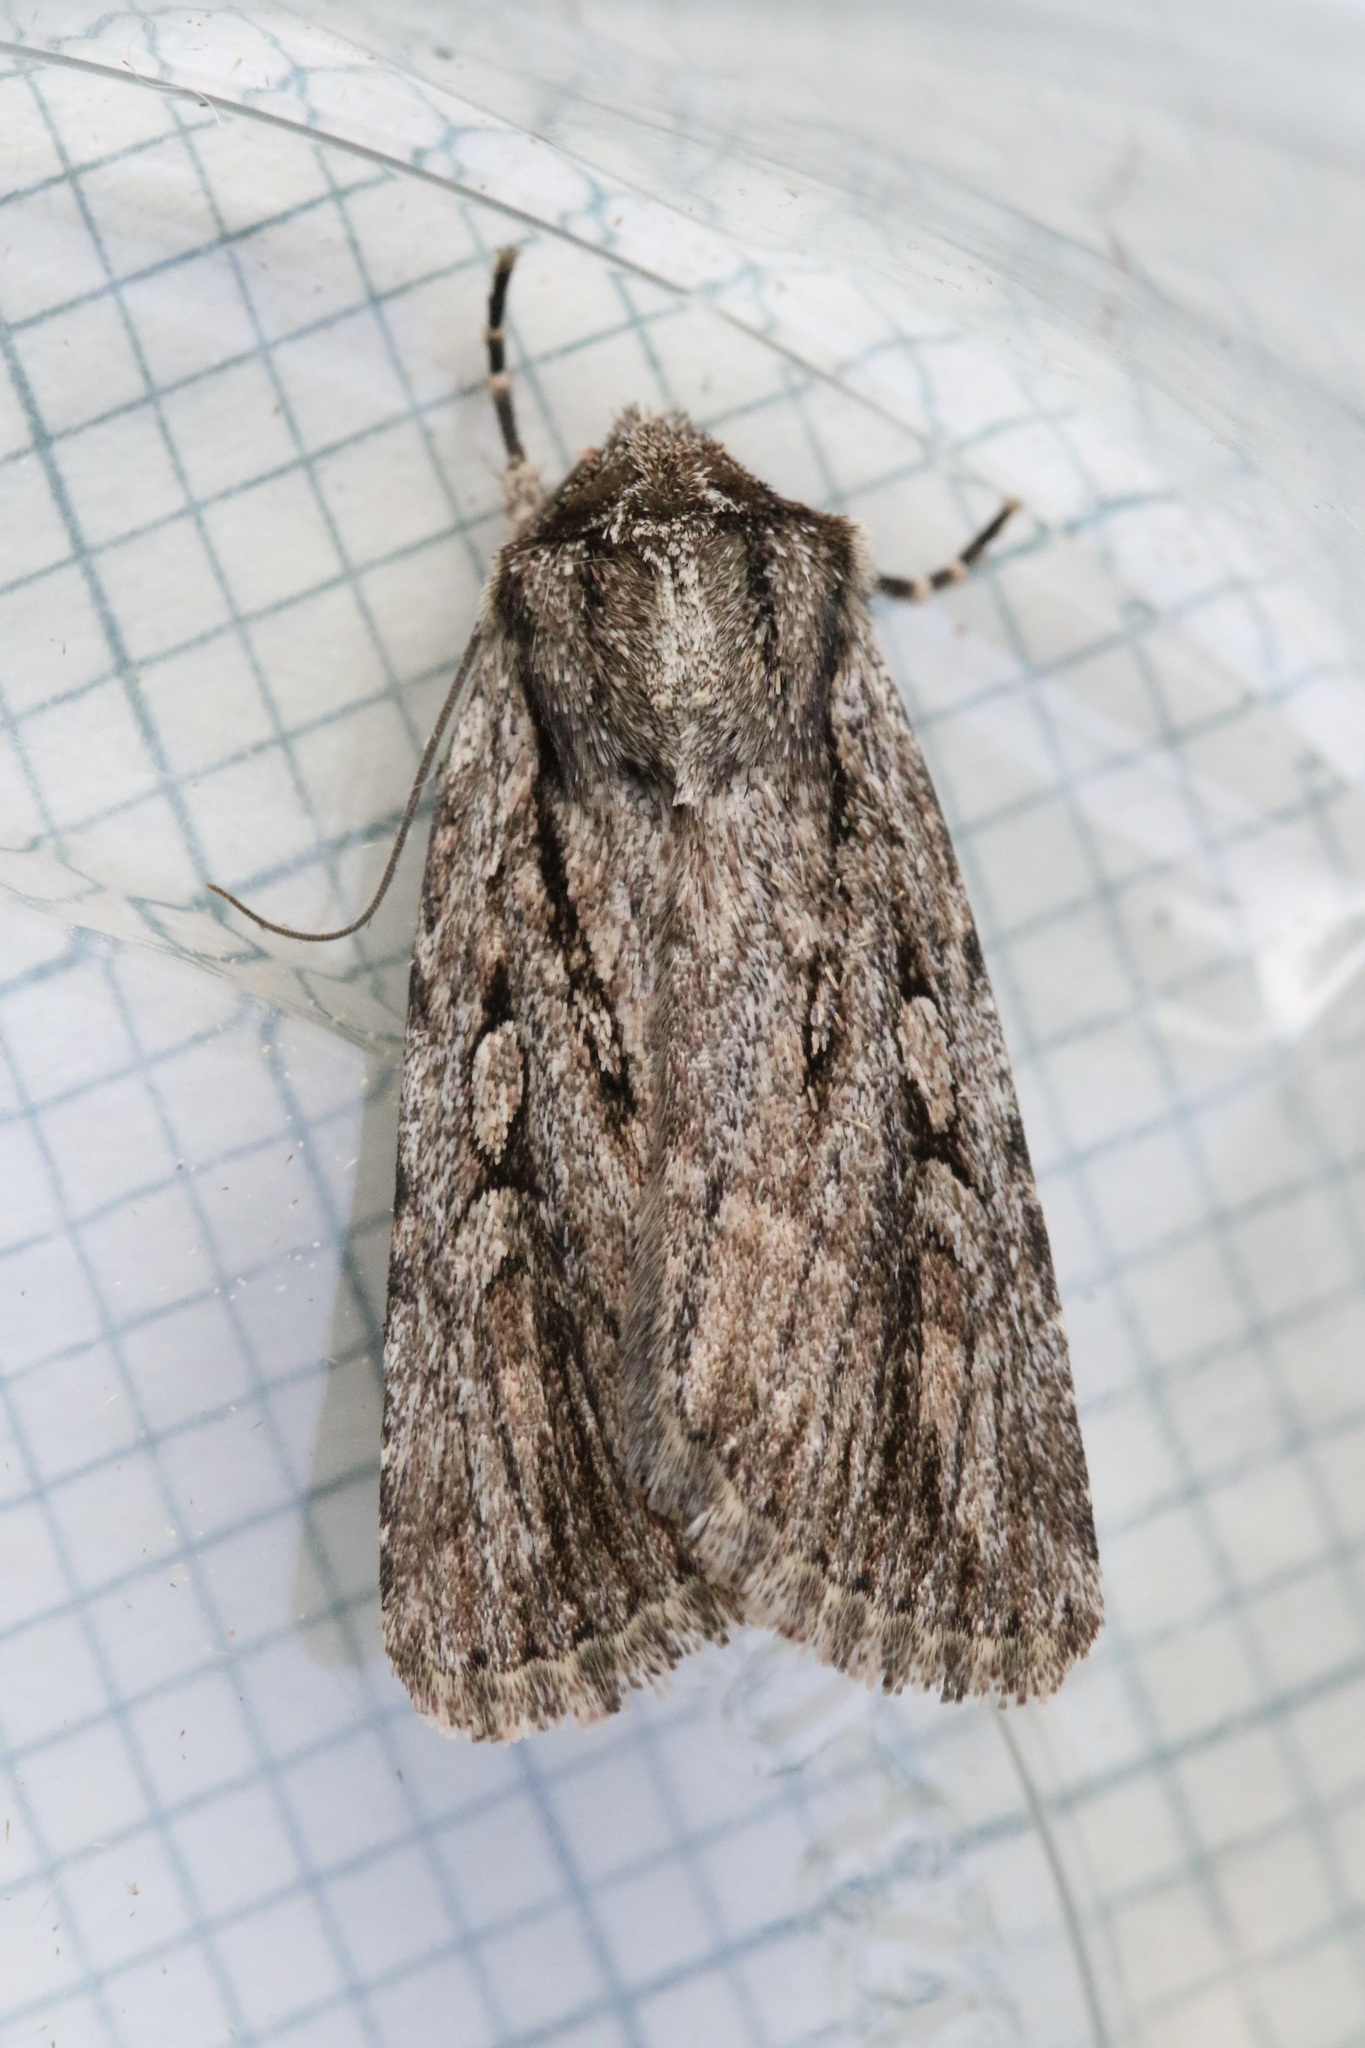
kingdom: Animalia
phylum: Arthropoda
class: Insecta
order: Lepidoptera
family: Noctuidae
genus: Yigoga
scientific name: Yigoga signifera
